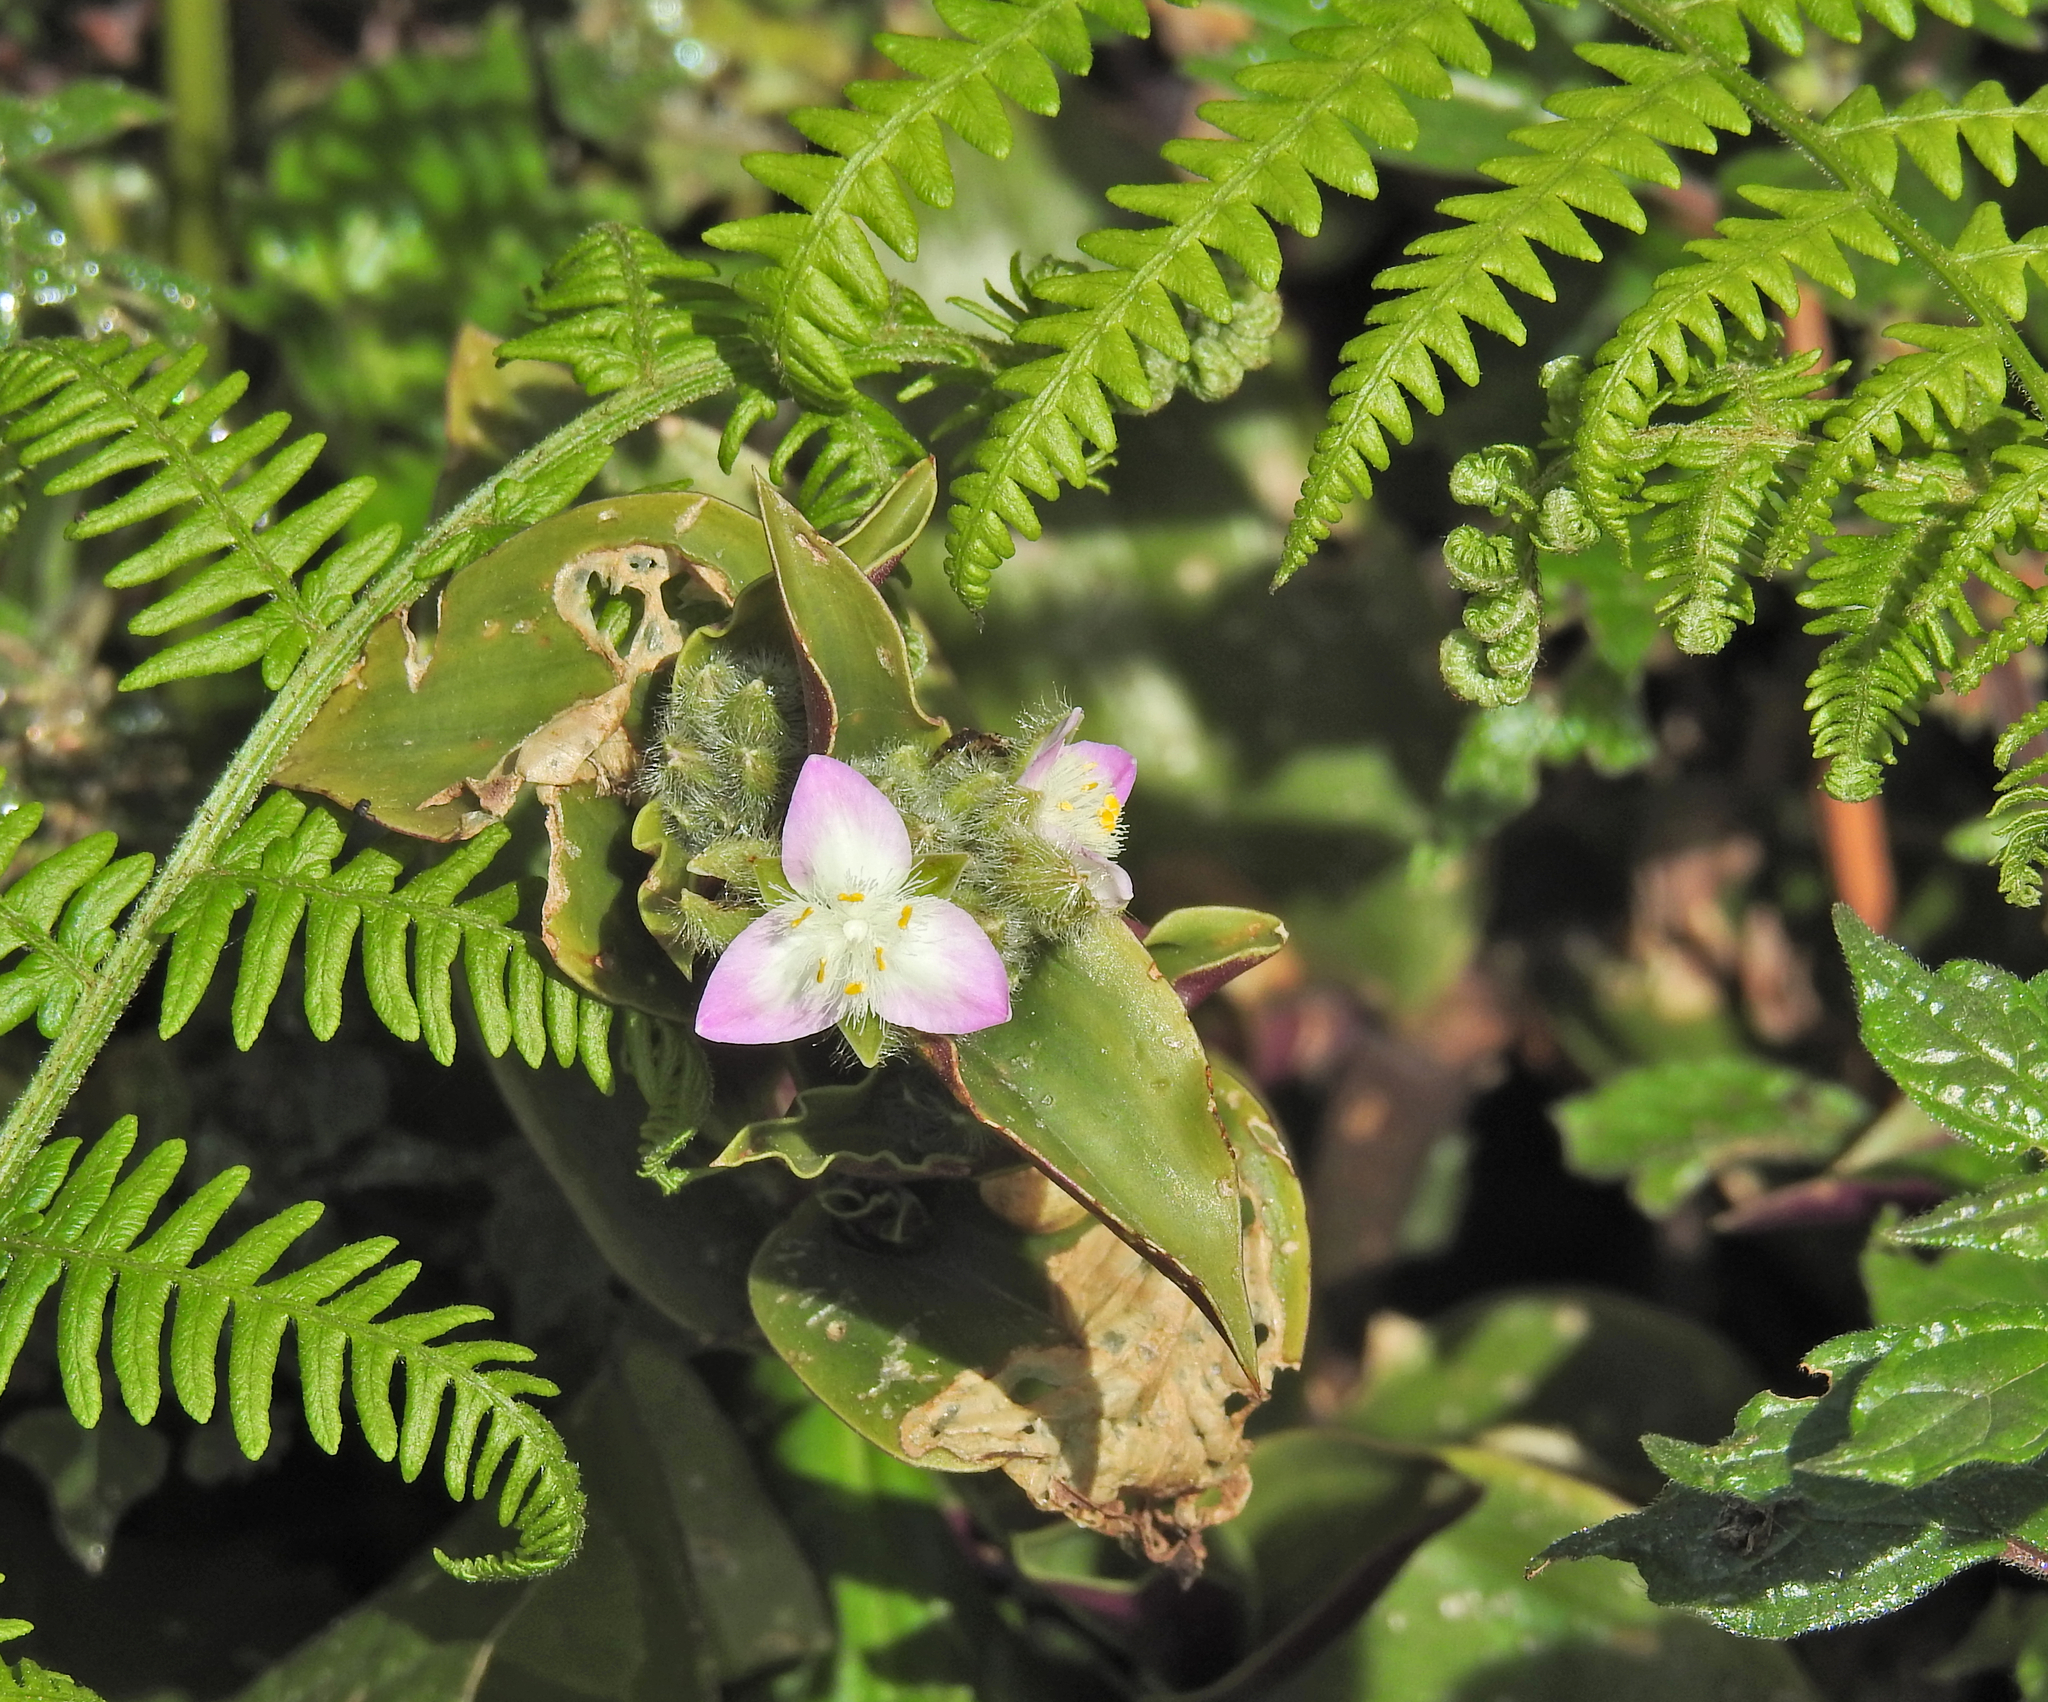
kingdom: Plantae
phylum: Tracheophyta
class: Liliopsida
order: Commelinales
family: Commelinaceae
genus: Tradescantia
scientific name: Tradescantia cerinthoides
